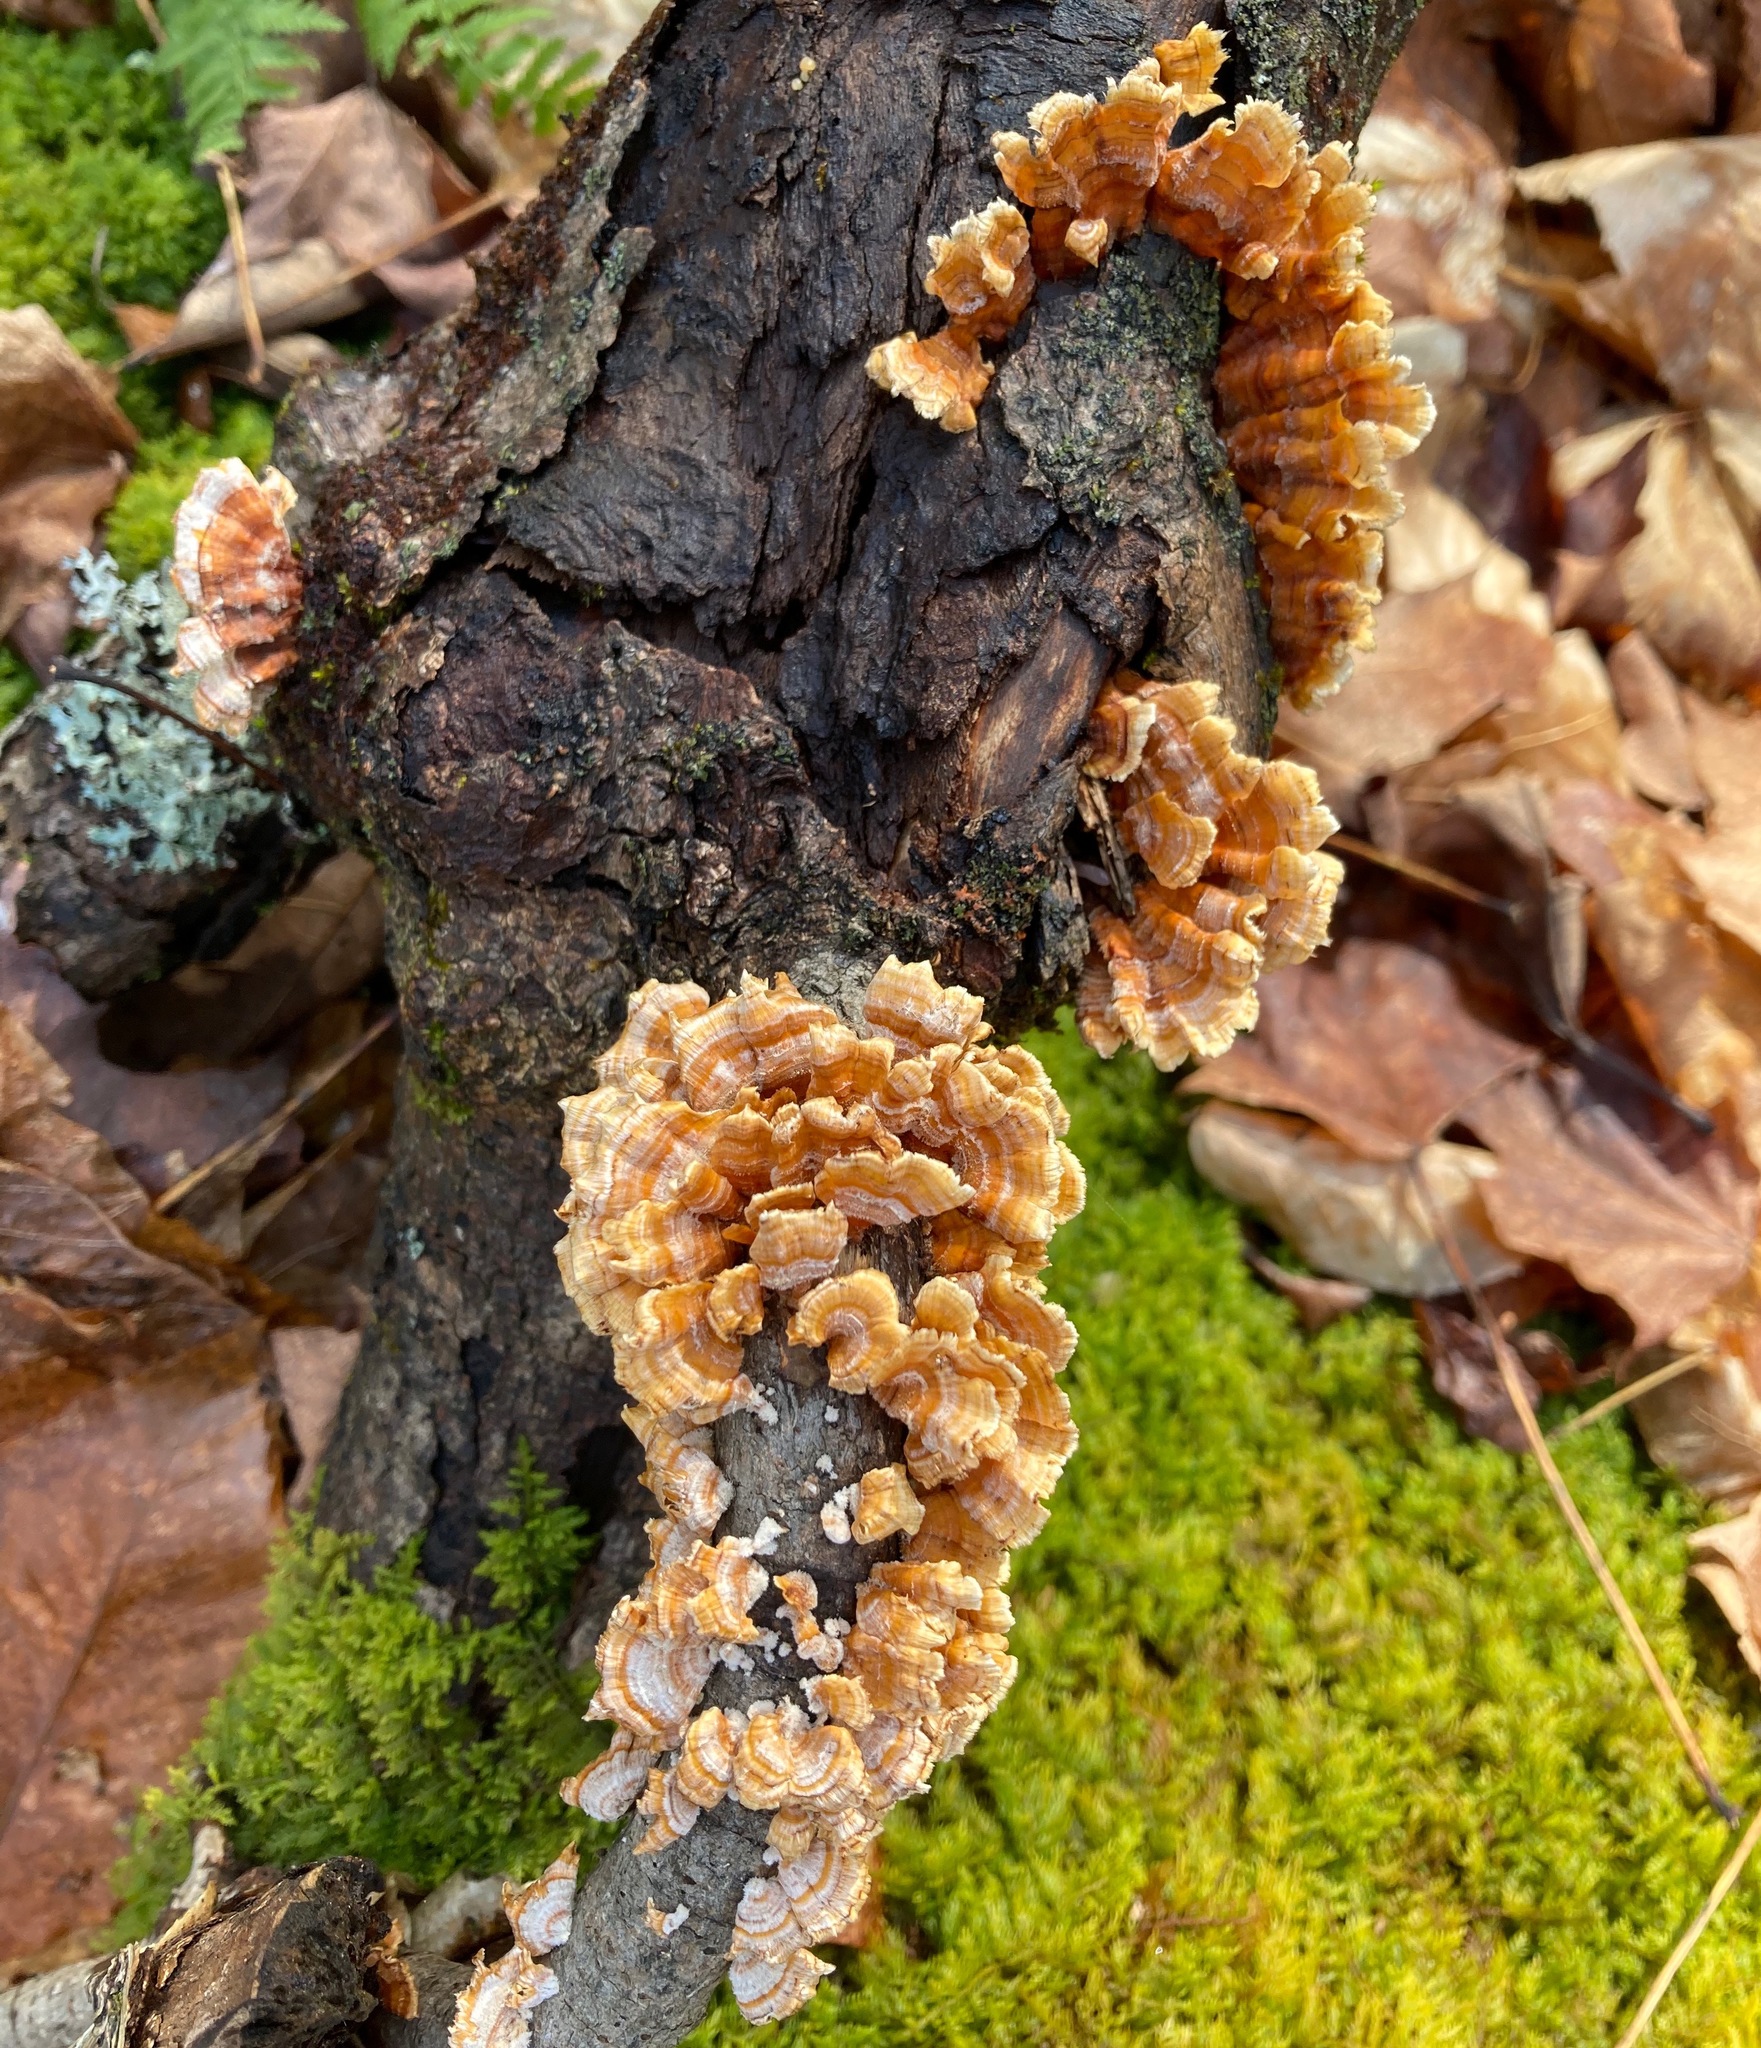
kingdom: Fungi
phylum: Basidiomycota
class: Agaricomycetes
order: Russulales
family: Stereaceae
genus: Stereum
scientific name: Stereum complicatum
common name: Crowded parchment
